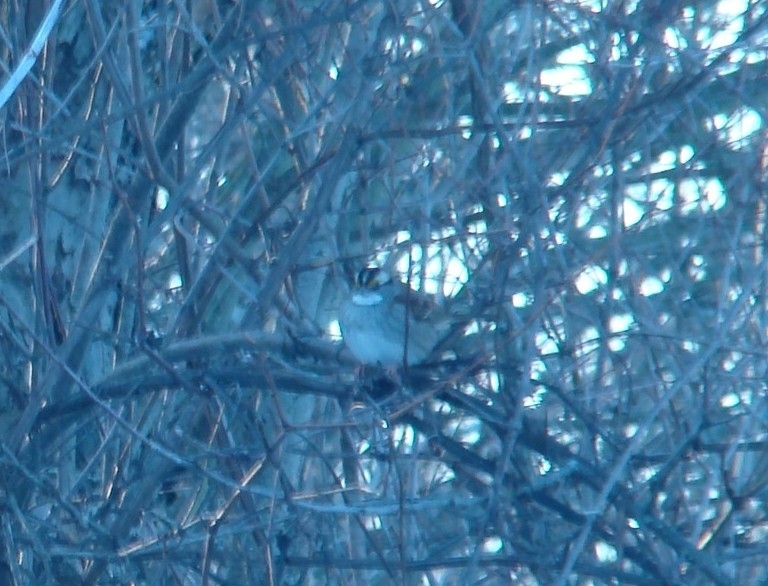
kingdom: Animalia
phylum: Chordata
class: Aves
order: Passeriformes
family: Passerellidae
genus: Zonotrichia
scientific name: Zonotrichia albicollis
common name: White-throated sparrow
